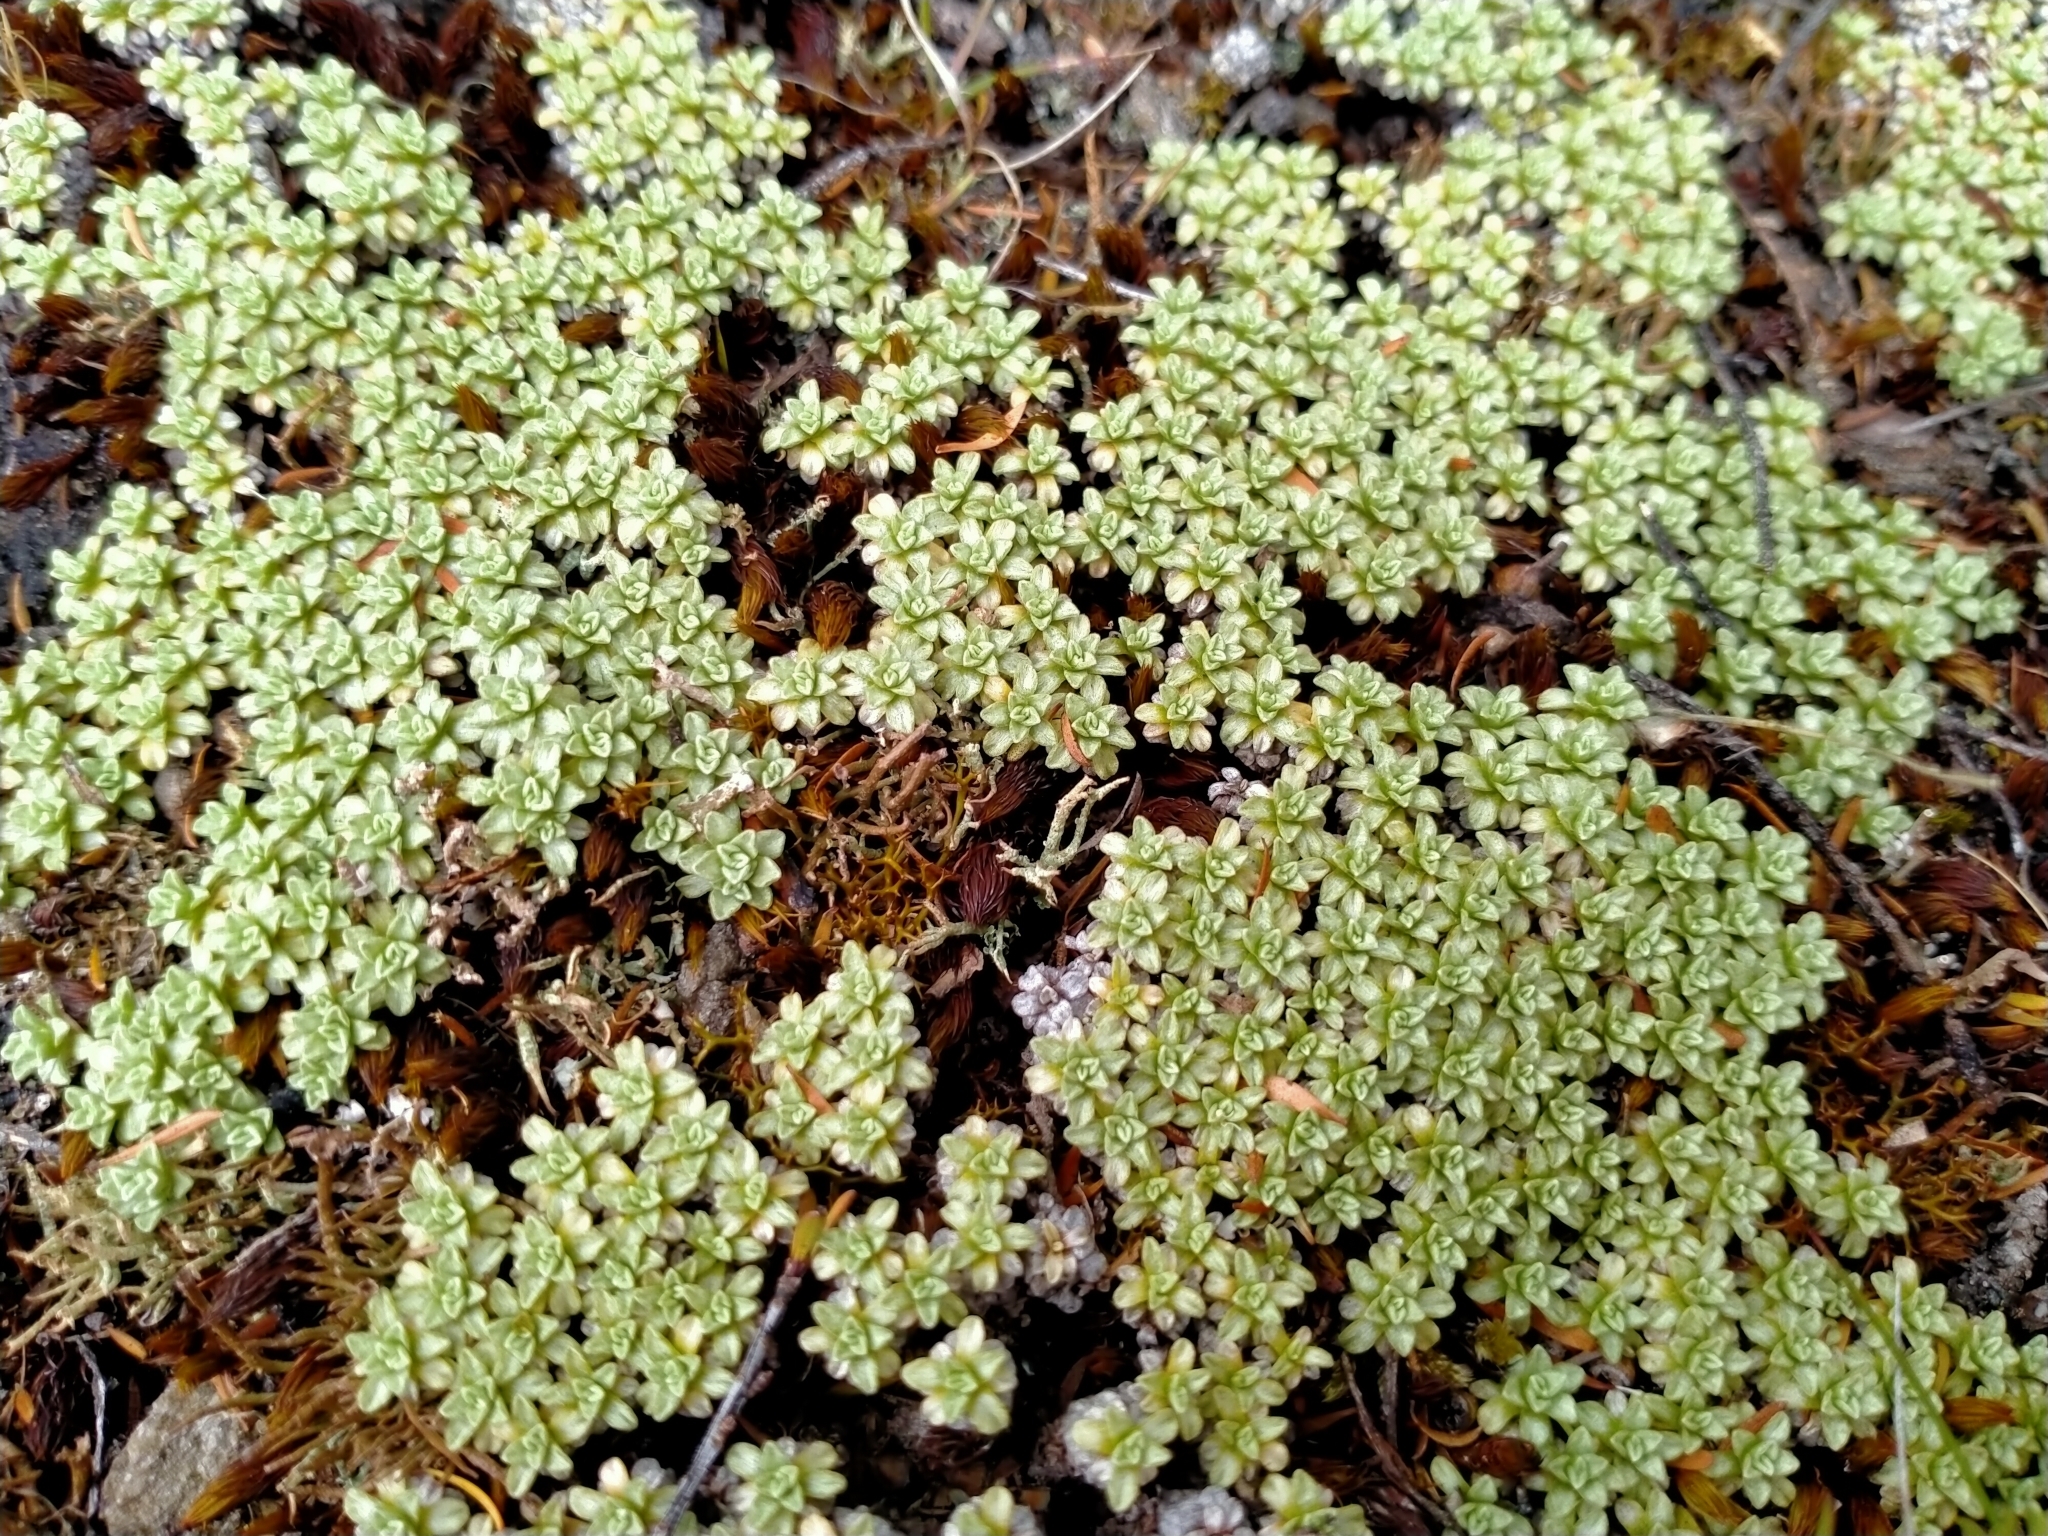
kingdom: Plantae
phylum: Tracheophyta
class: Magnoliopsida
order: Asterales
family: Asteraceae
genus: Raoulia
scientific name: Raoulia parkii
